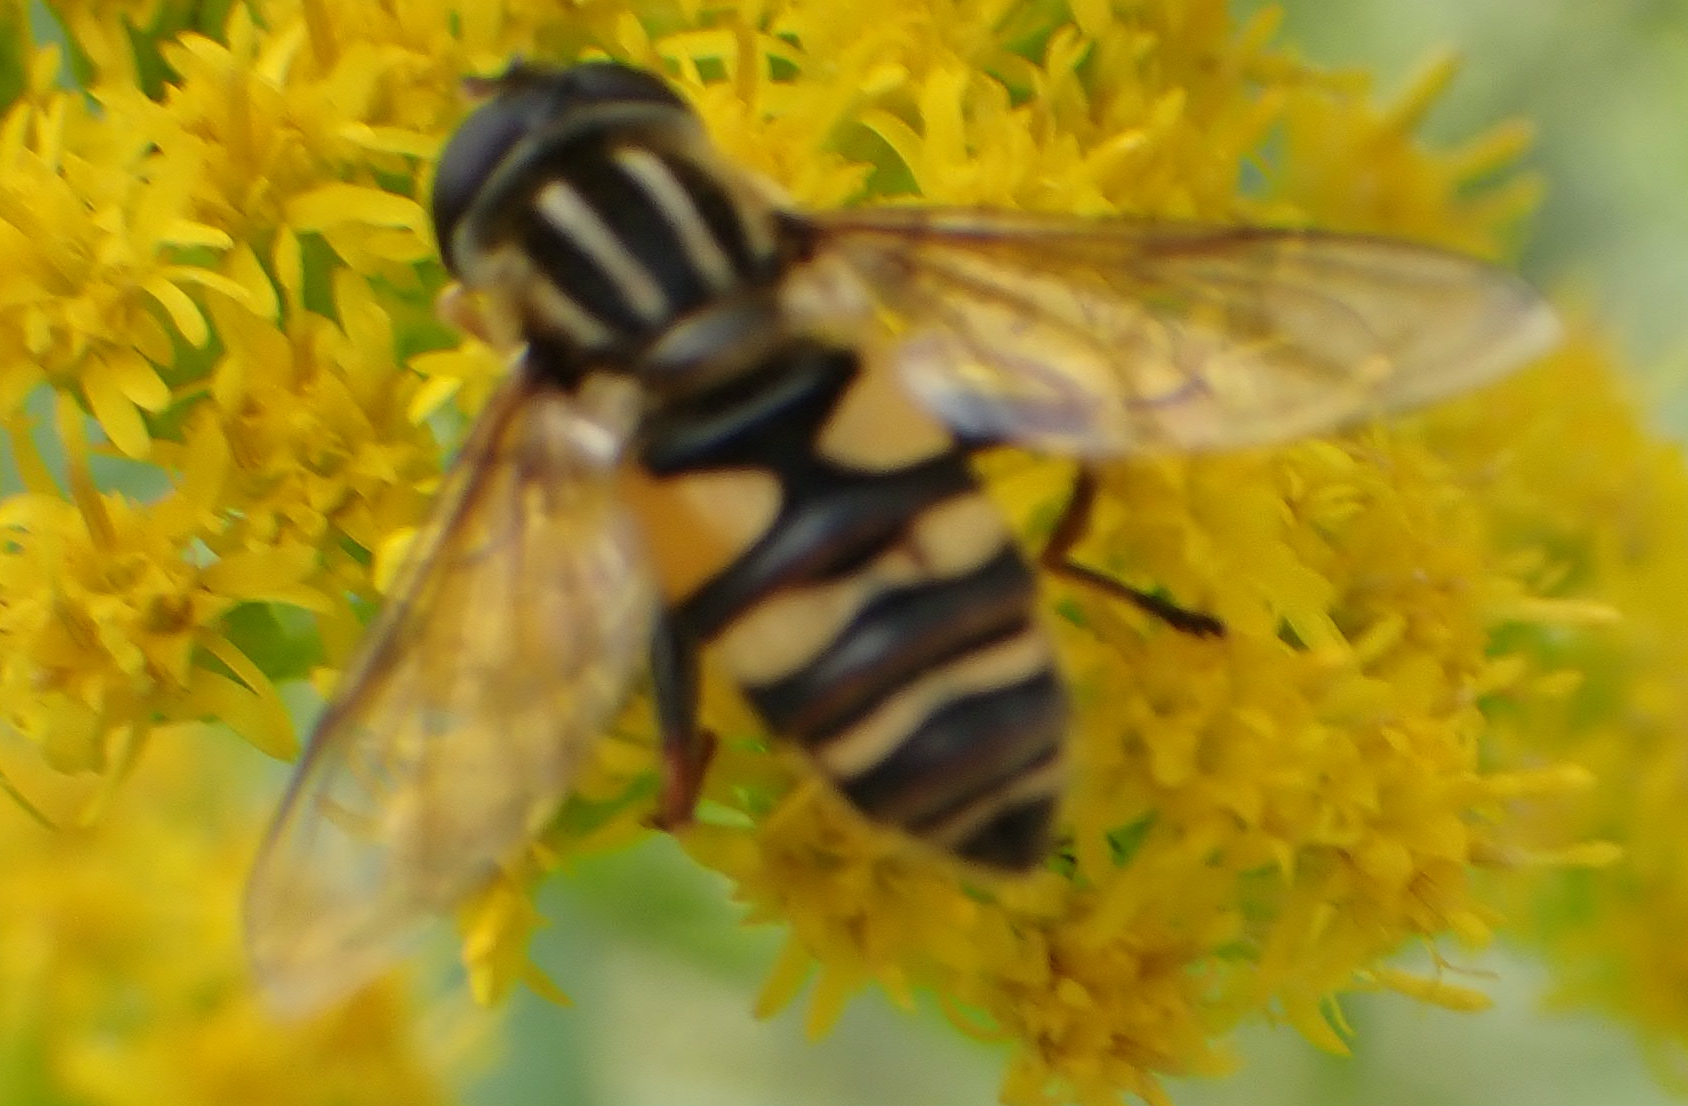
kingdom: Animalia
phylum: Arthropoda
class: Insecta
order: Diptera
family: Syrphidae
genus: Helophilus
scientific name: Helophilus fasciatus
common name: Narrow-headed marsh fly
